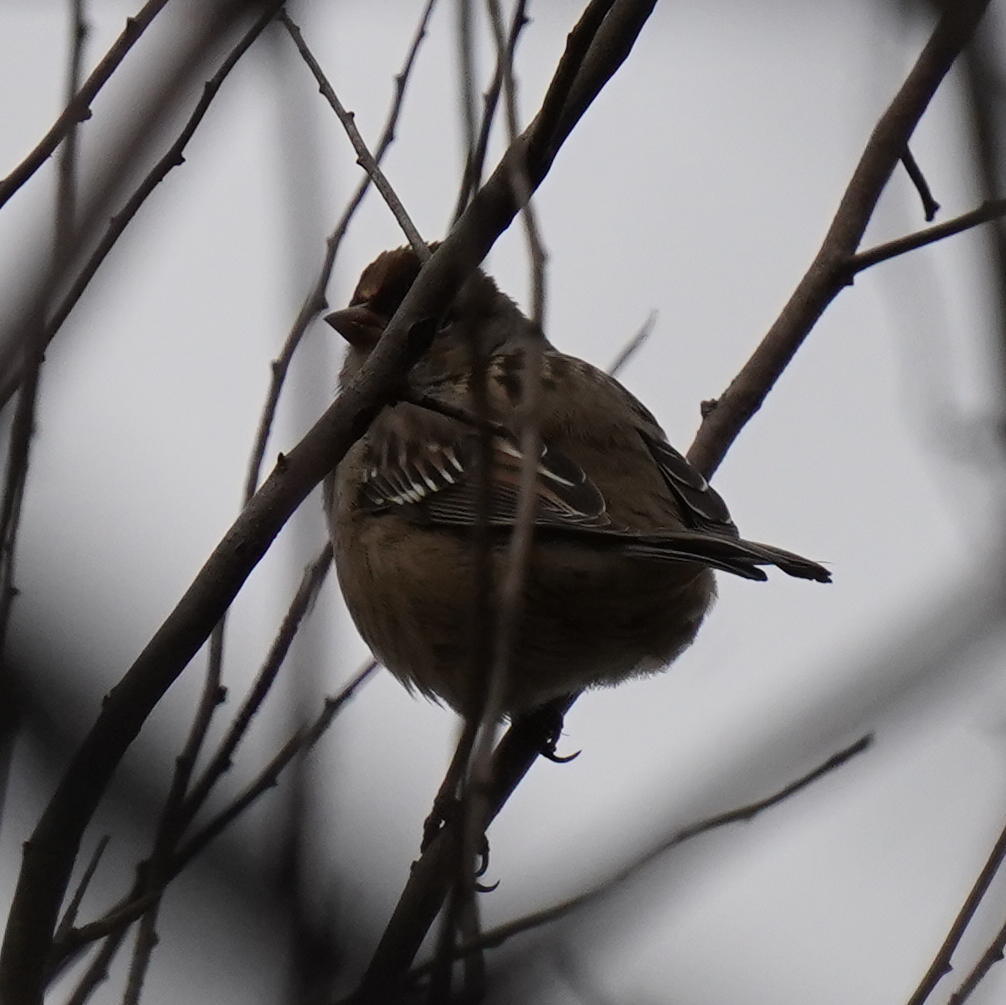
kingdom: Animalia
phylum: Chordata
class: Aves
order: Passeriformes
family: Passerellidae
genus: Zonotrichia
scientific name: Zonotrichia leucophrys
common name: White-crowned sparrow
